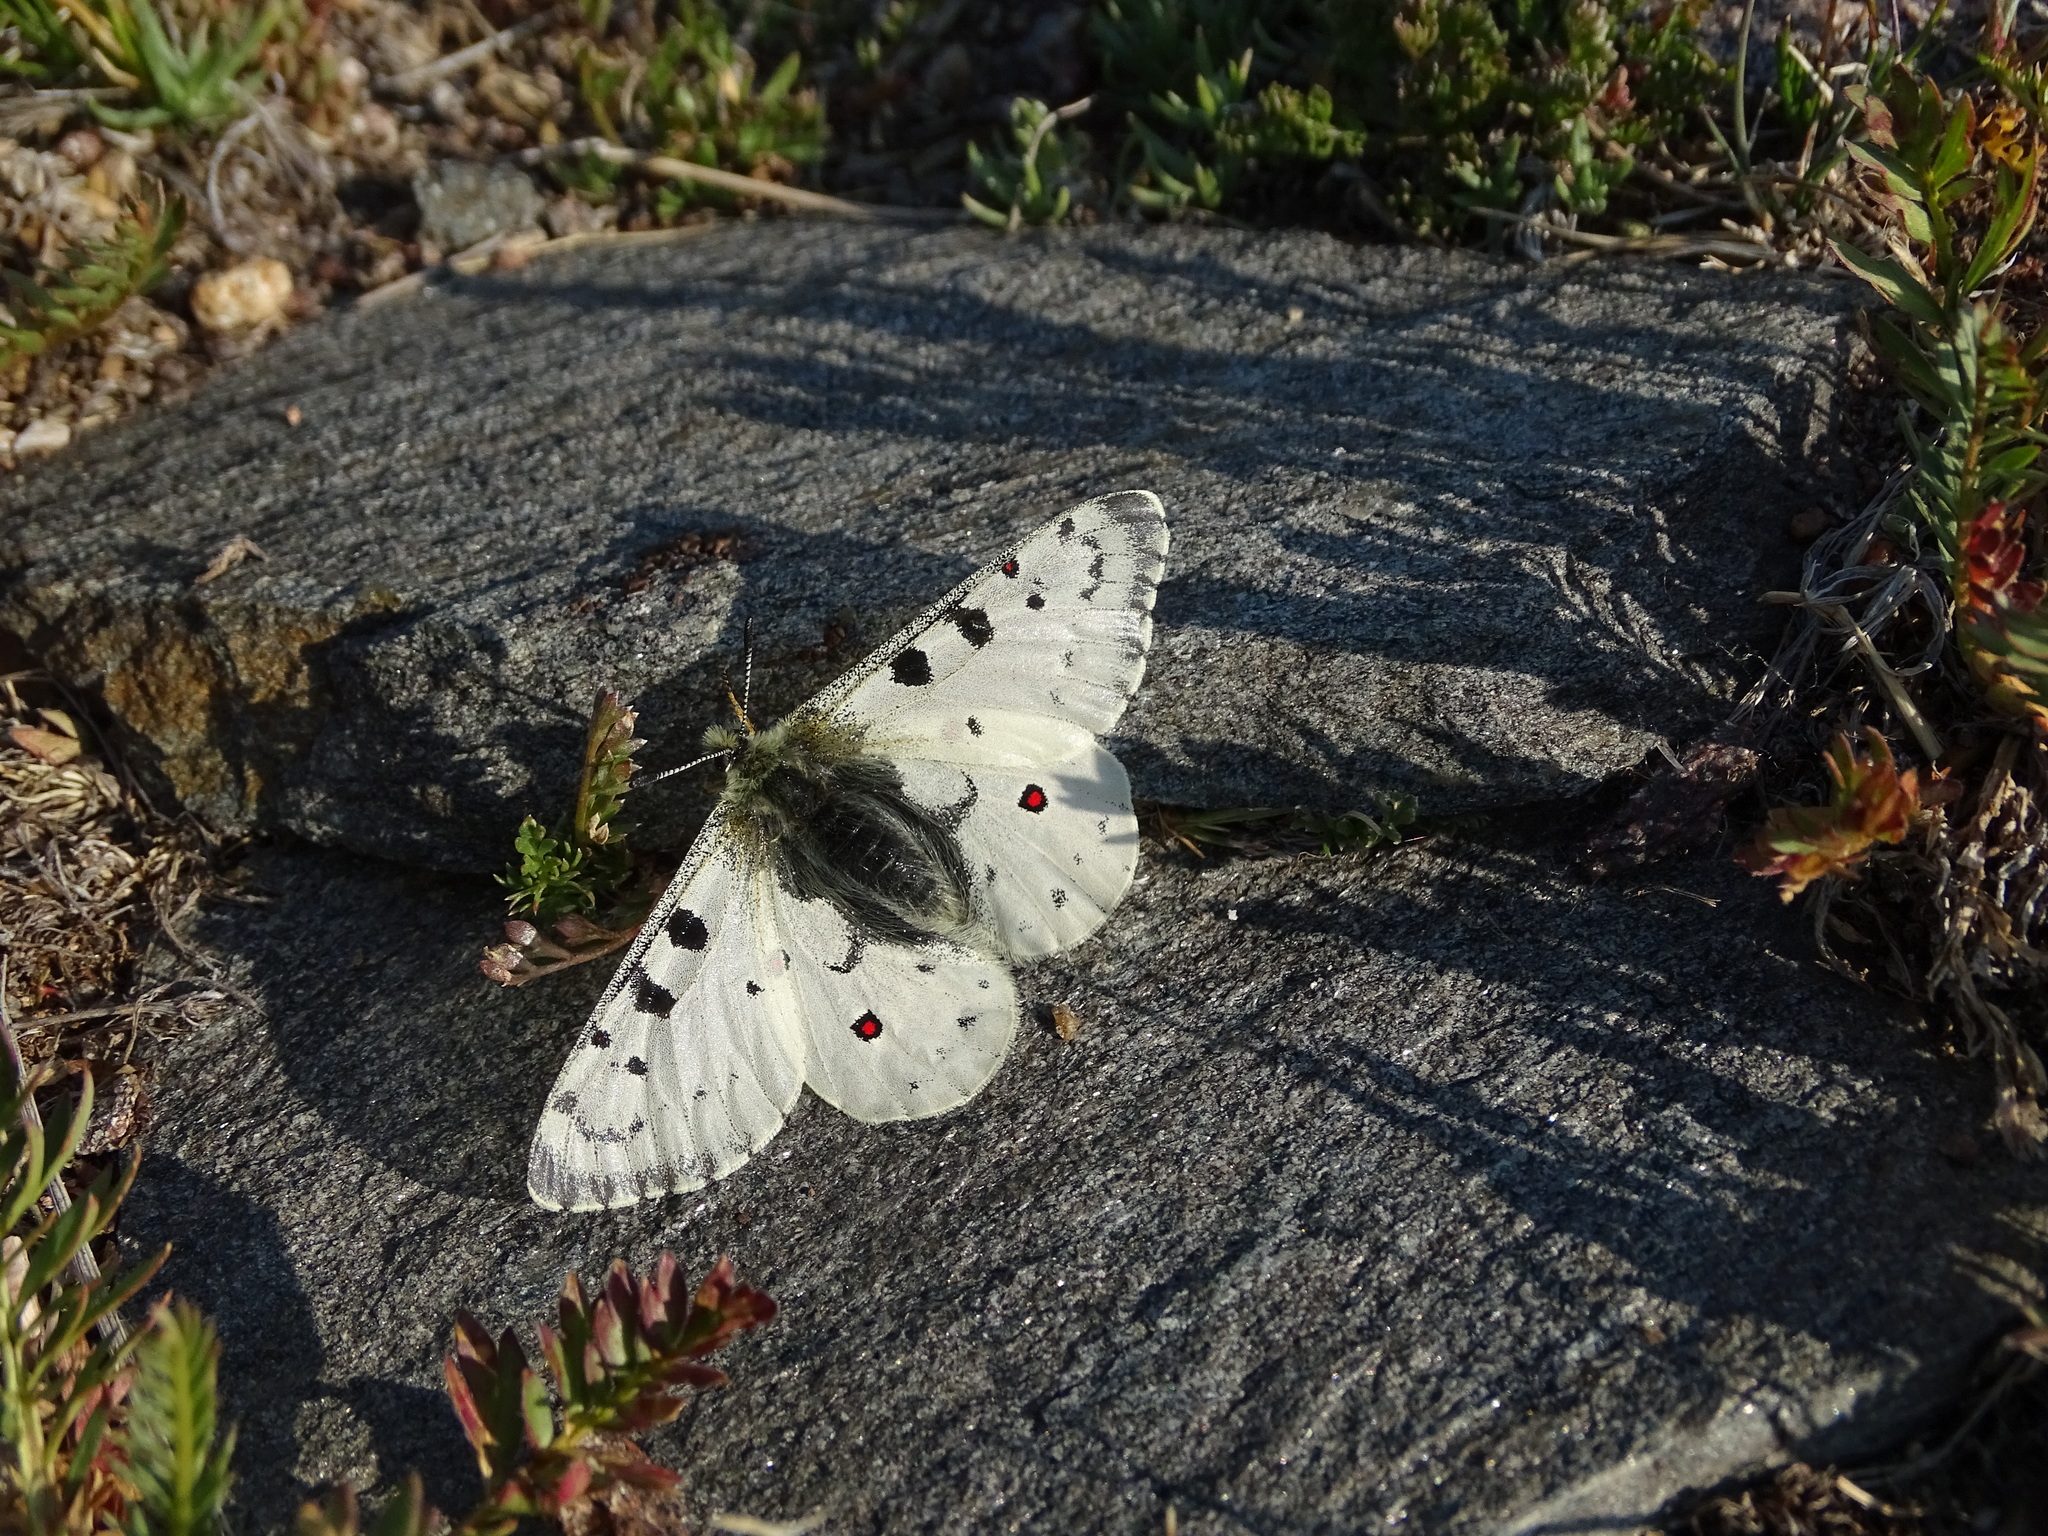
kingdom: Animalia
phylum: Arthropoda
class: Insecta
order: Lepidoptera
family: Papilionidae
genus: Parnassius
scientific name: Parnassius smintheus
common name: Mountain parnassian
